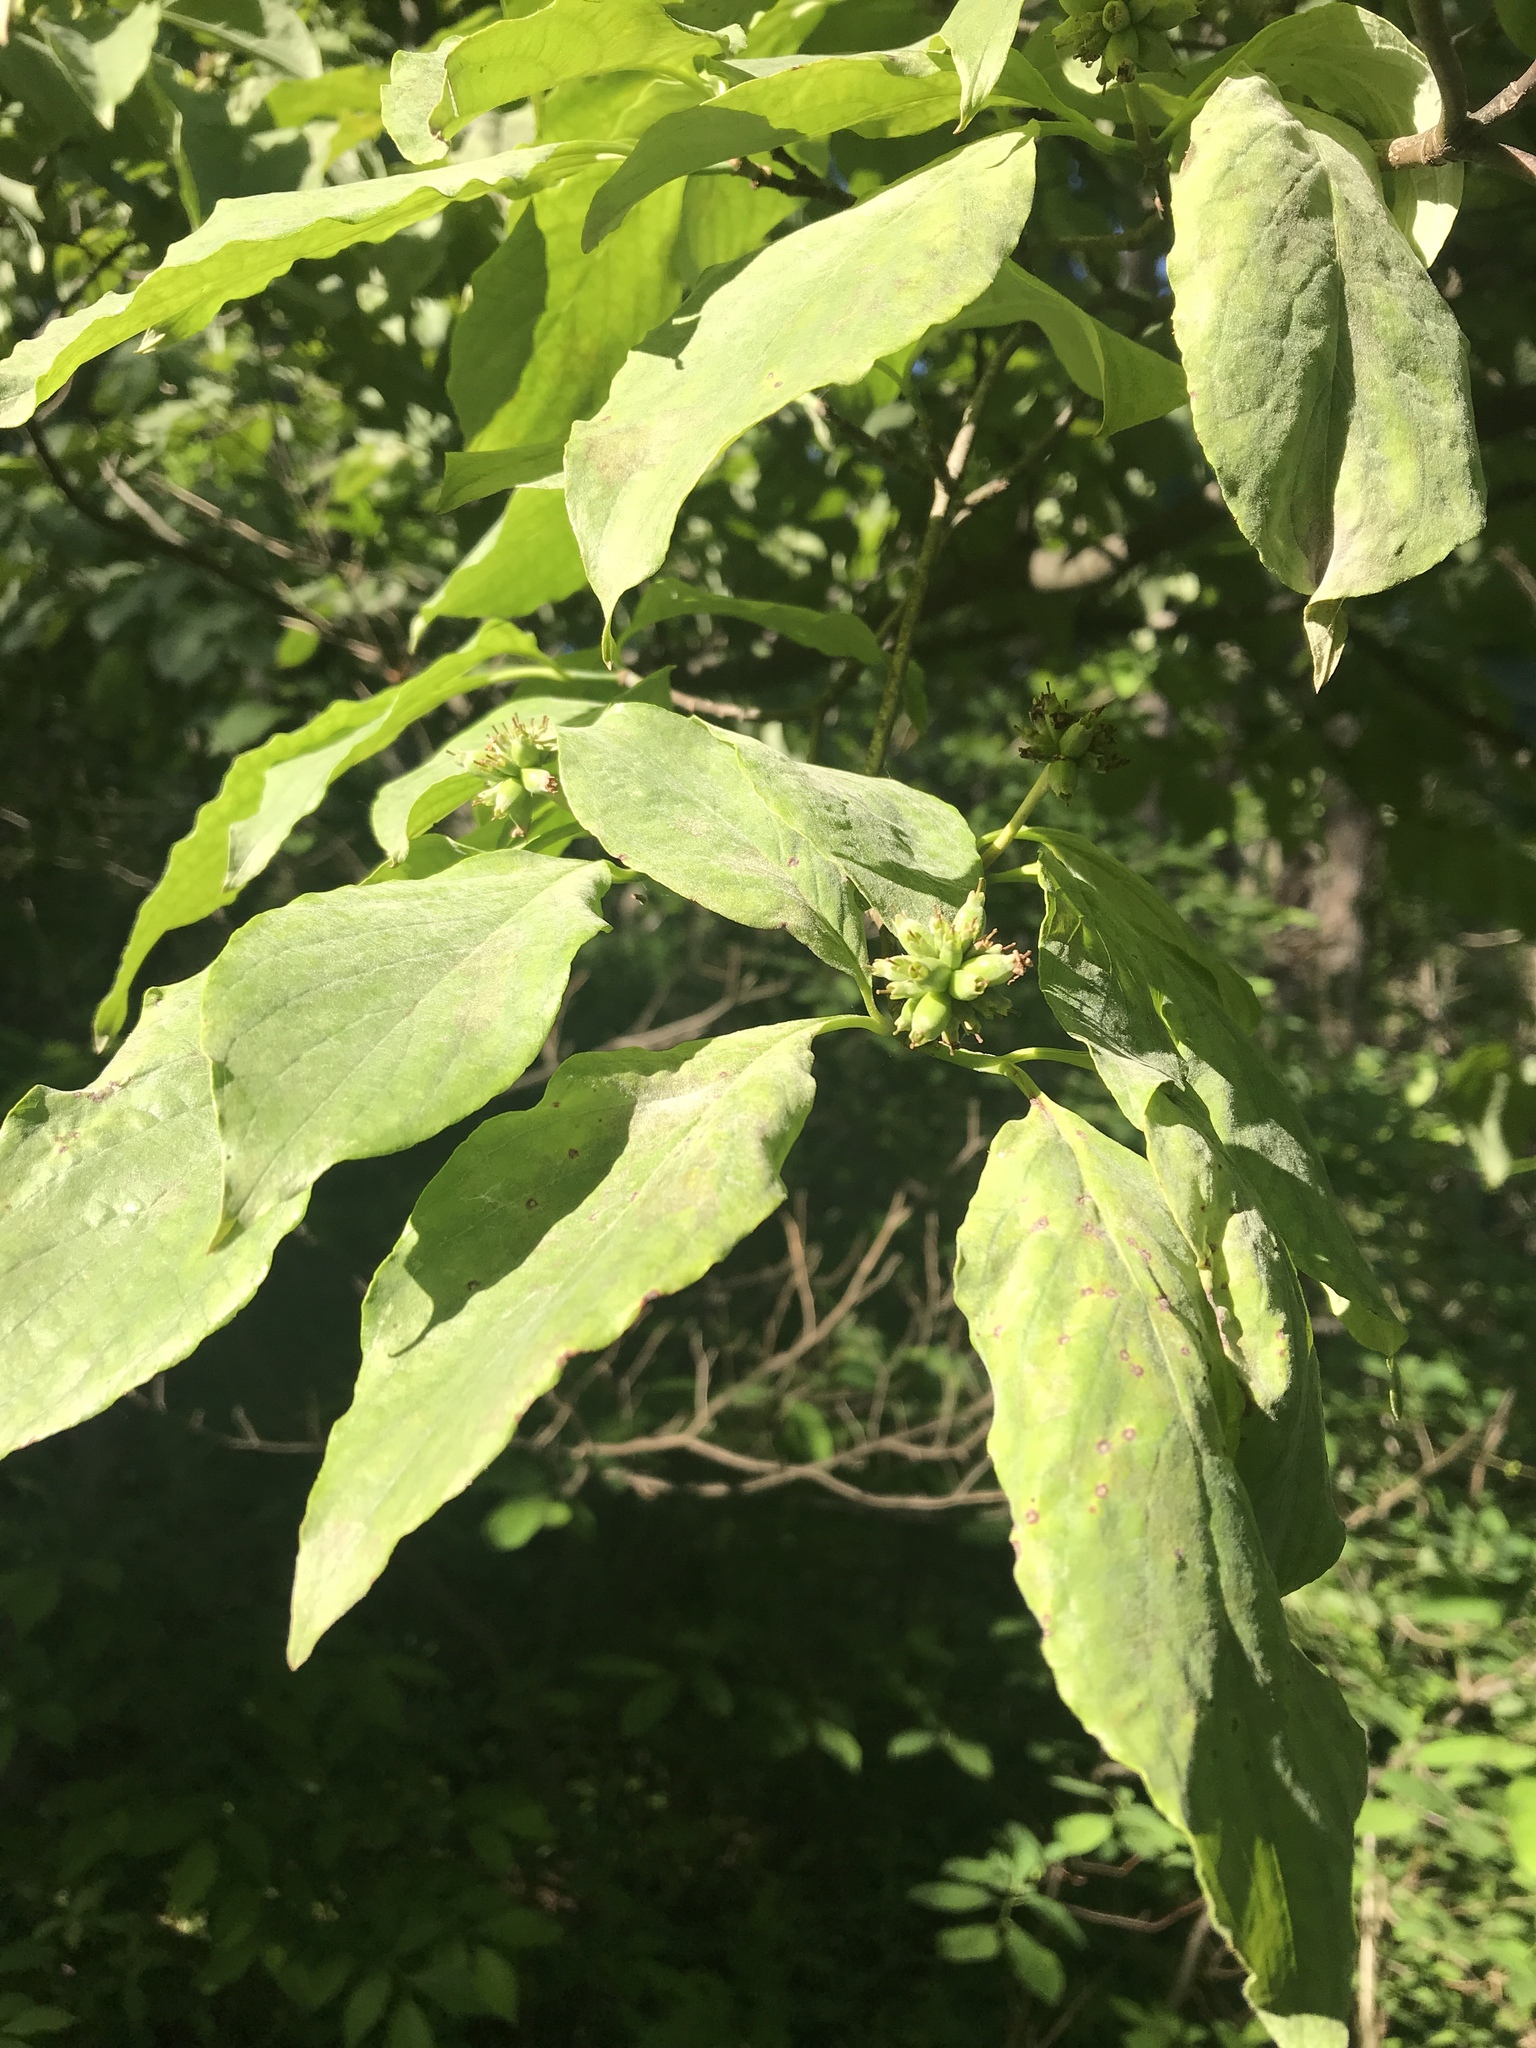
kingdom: Plantae
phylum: Tracheophyta
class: Magnoliopsida
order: Cornales
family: Cornaceae
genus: Cornus
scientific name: Cornus florida
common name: Flowering dogwood
